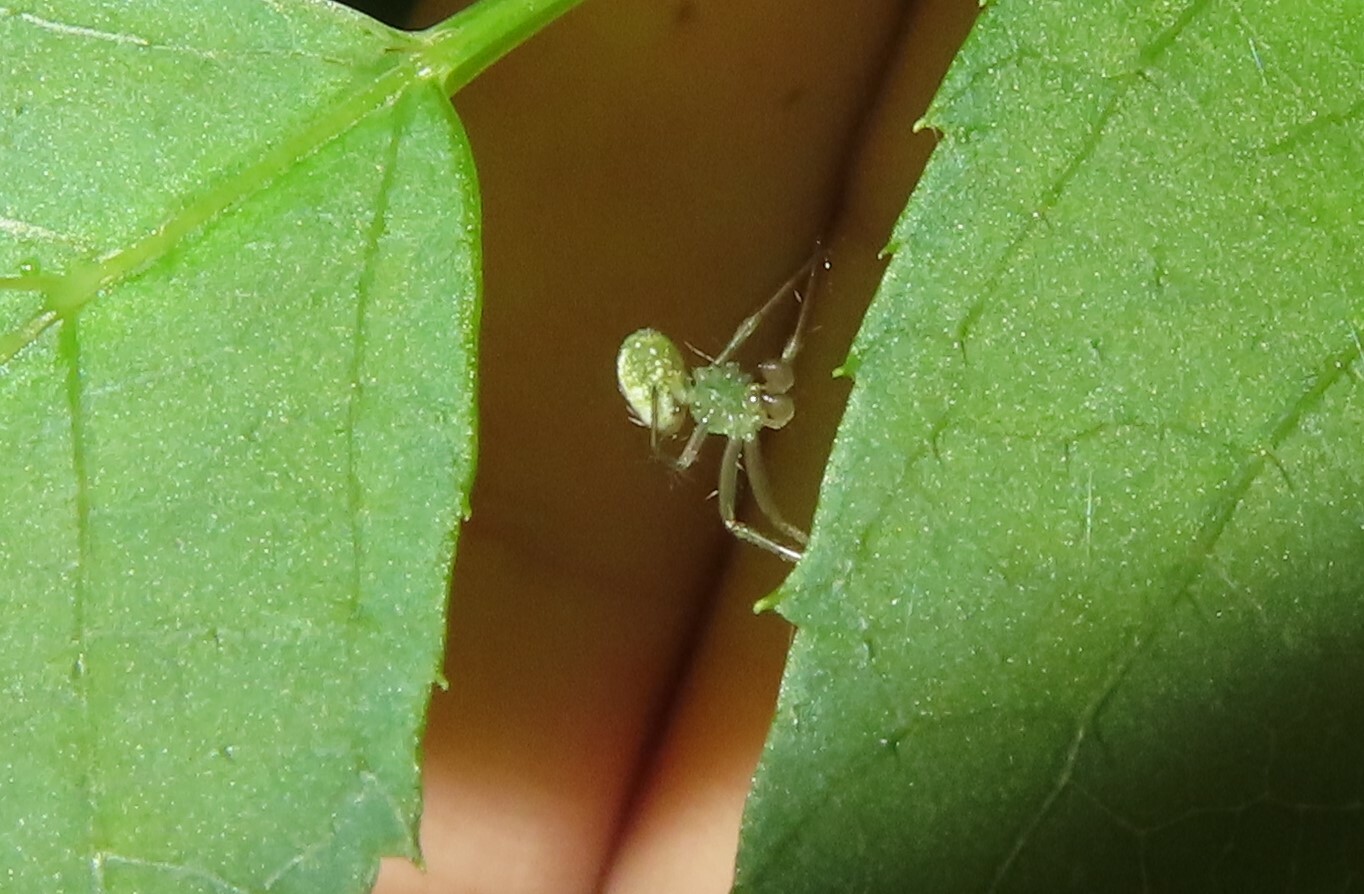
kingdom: Animalia
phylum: Arthropoda
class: Arachnida
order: Araneae
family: Araneidae
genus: Mangora
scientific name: Mangora maculata
